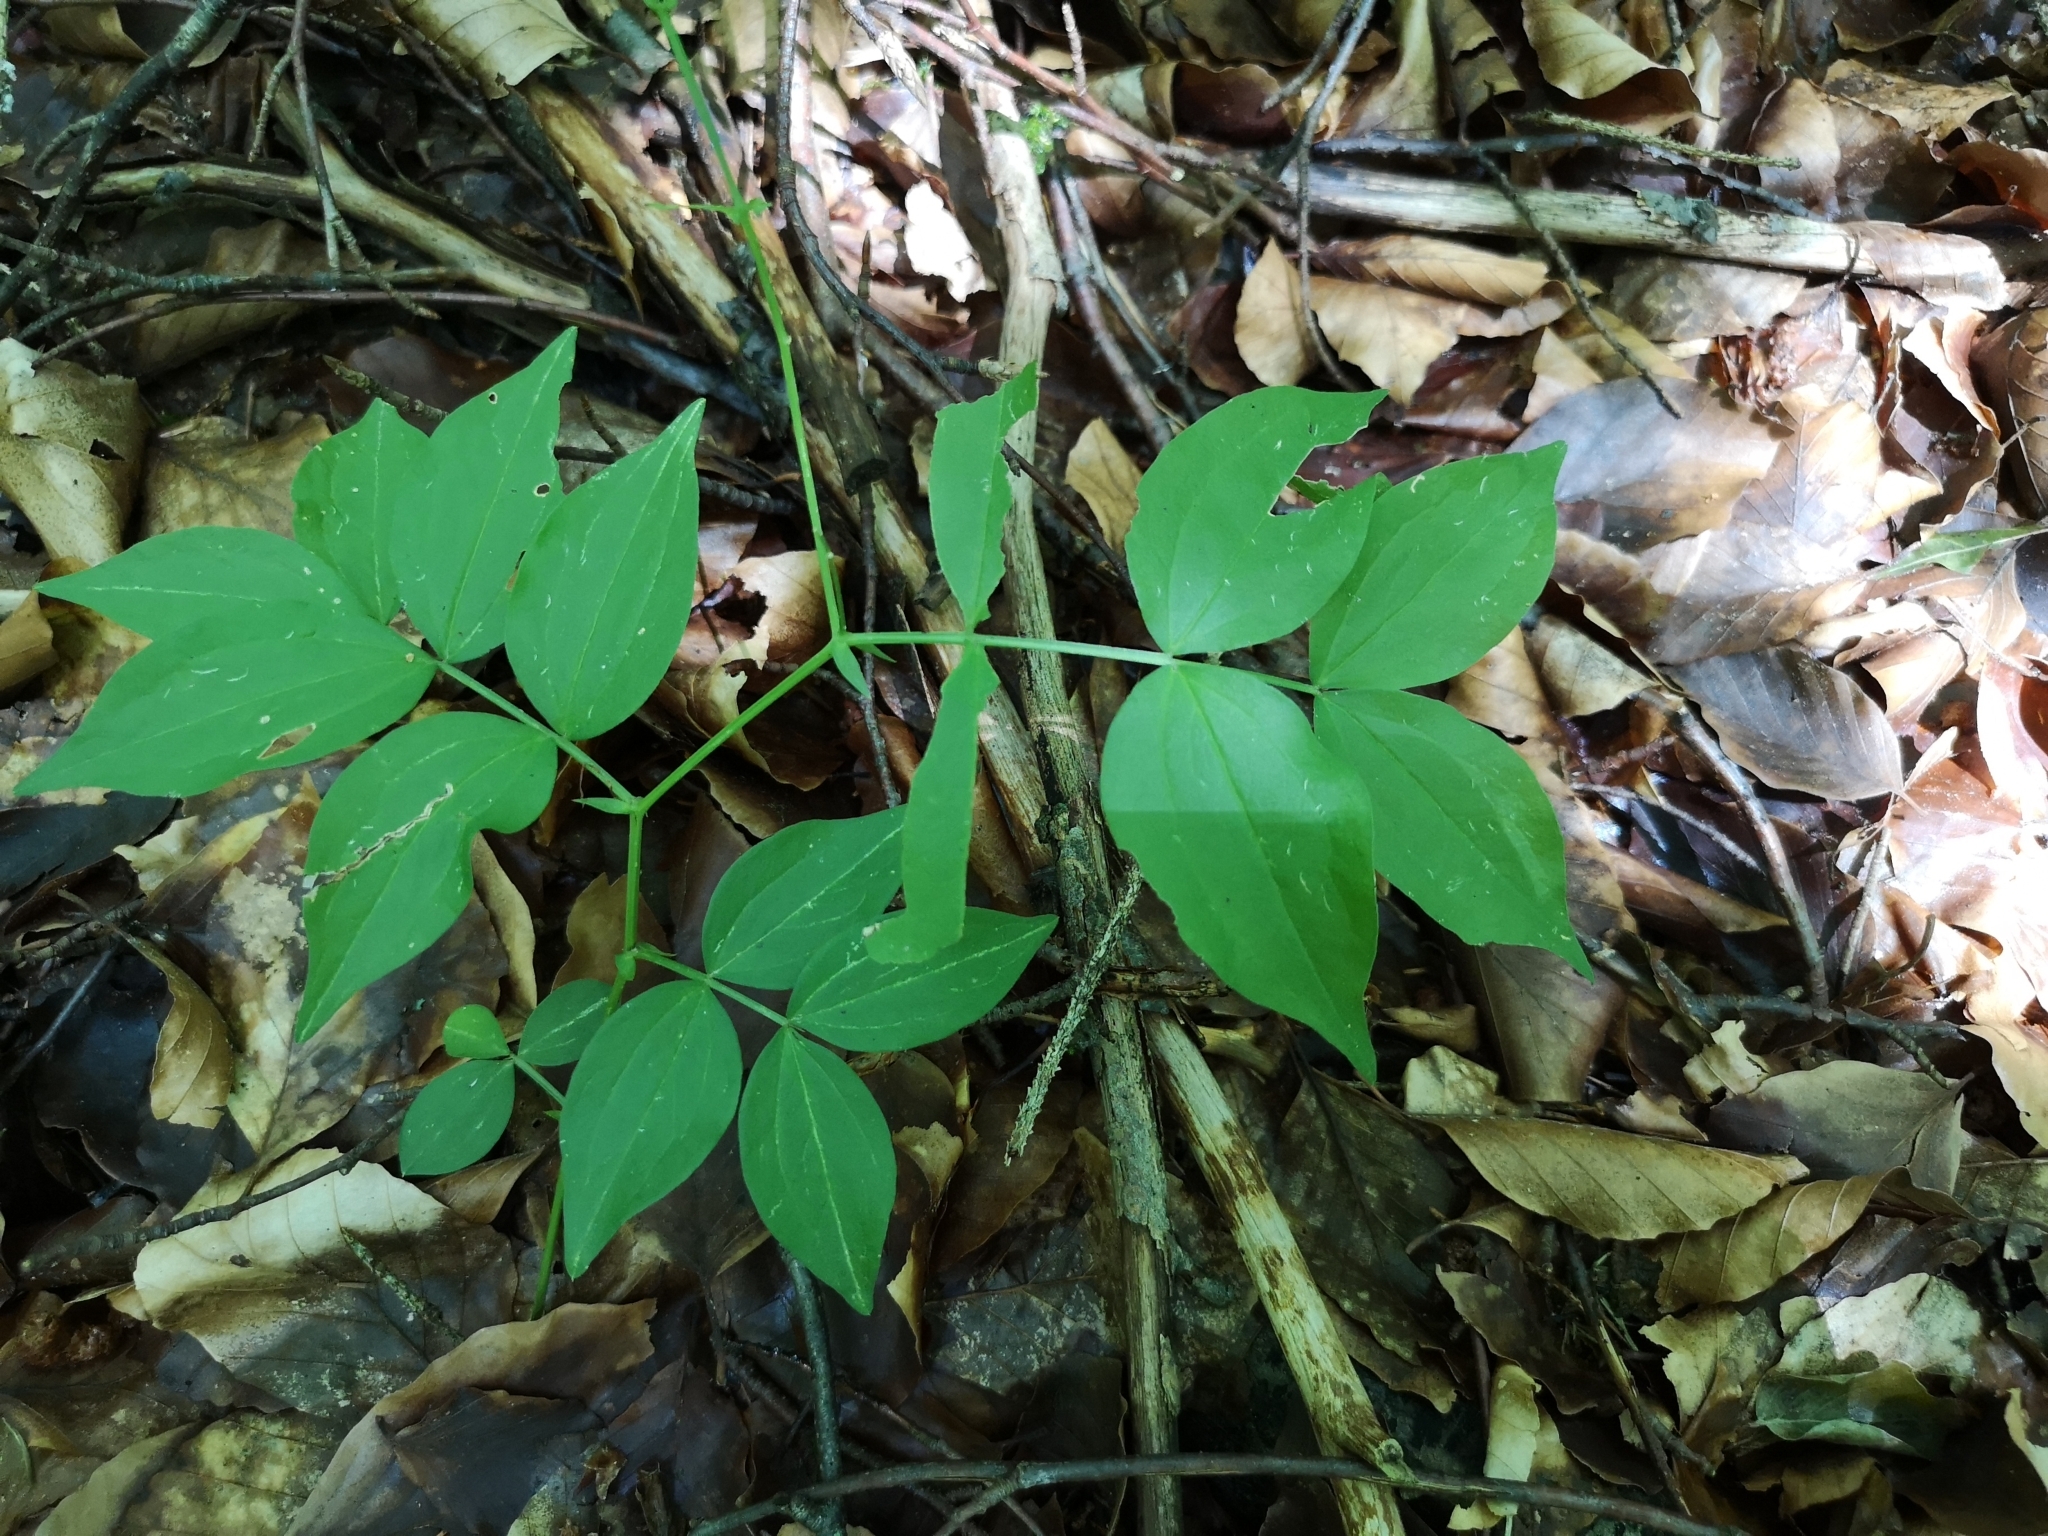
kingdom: Plantae
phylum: Tracheophyta
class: Magnoliopsida
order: Fabales
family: Fabaceae
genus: Lathyrus
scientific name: Lathyrus vernus
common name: Spring pea
